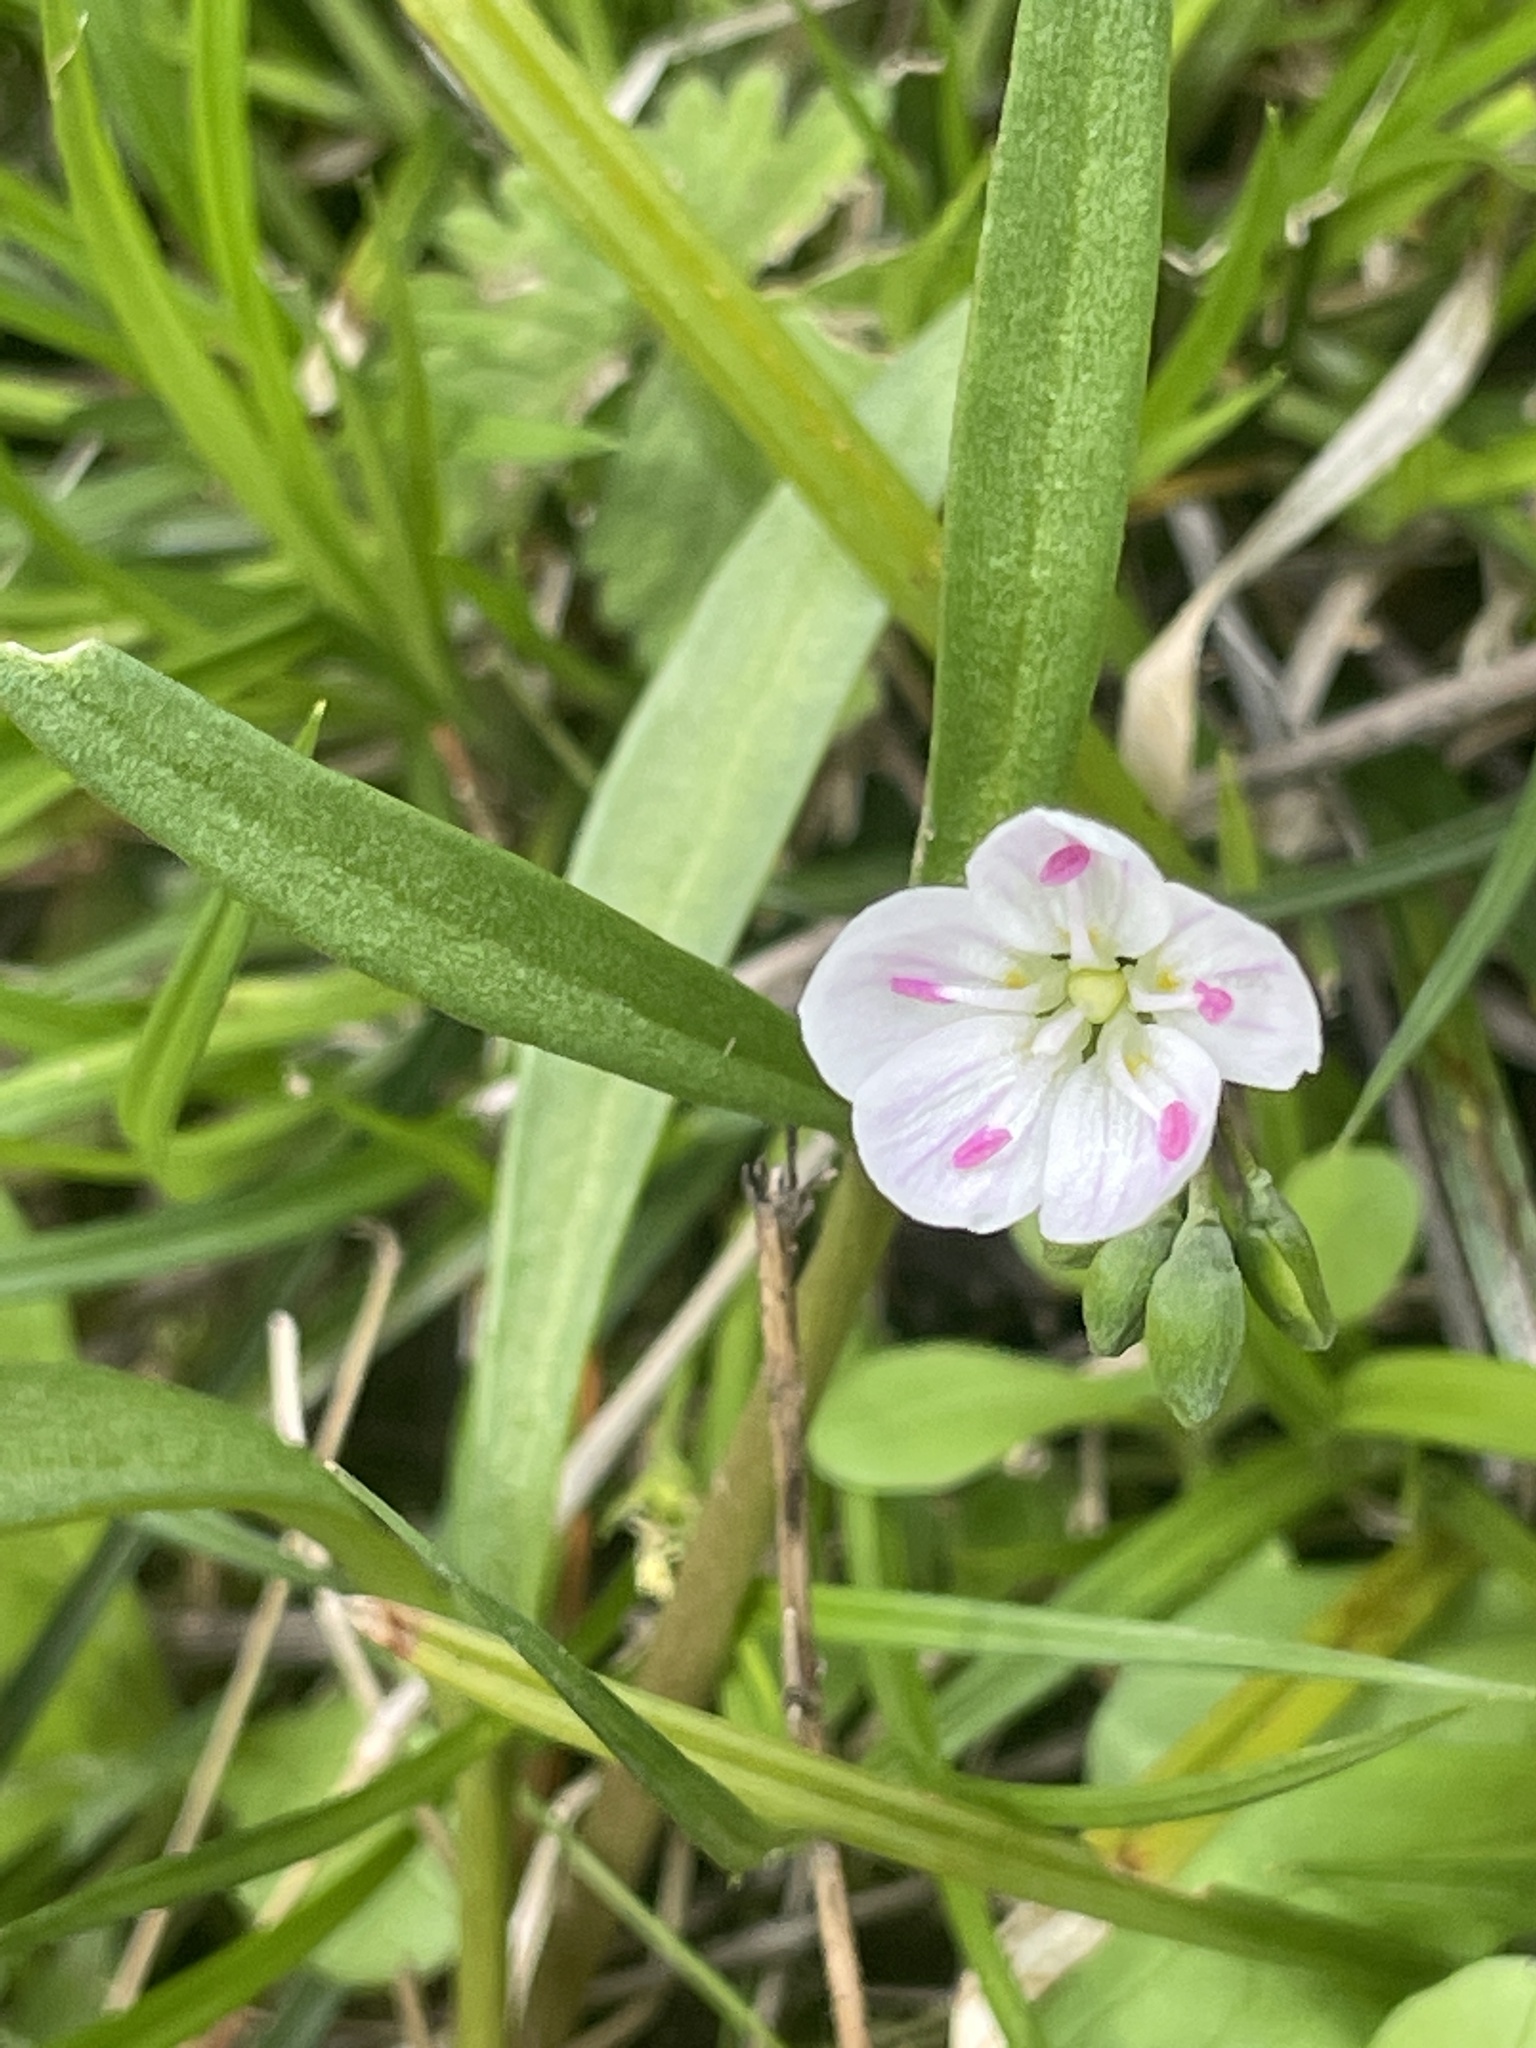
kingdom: Plantae
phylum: Tracheophyta
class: Magnoliopsida
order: Caryophyllales
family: Montiaceae
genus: Claytonia
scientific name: Claytonia virginica
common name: Virginia springbeauty
